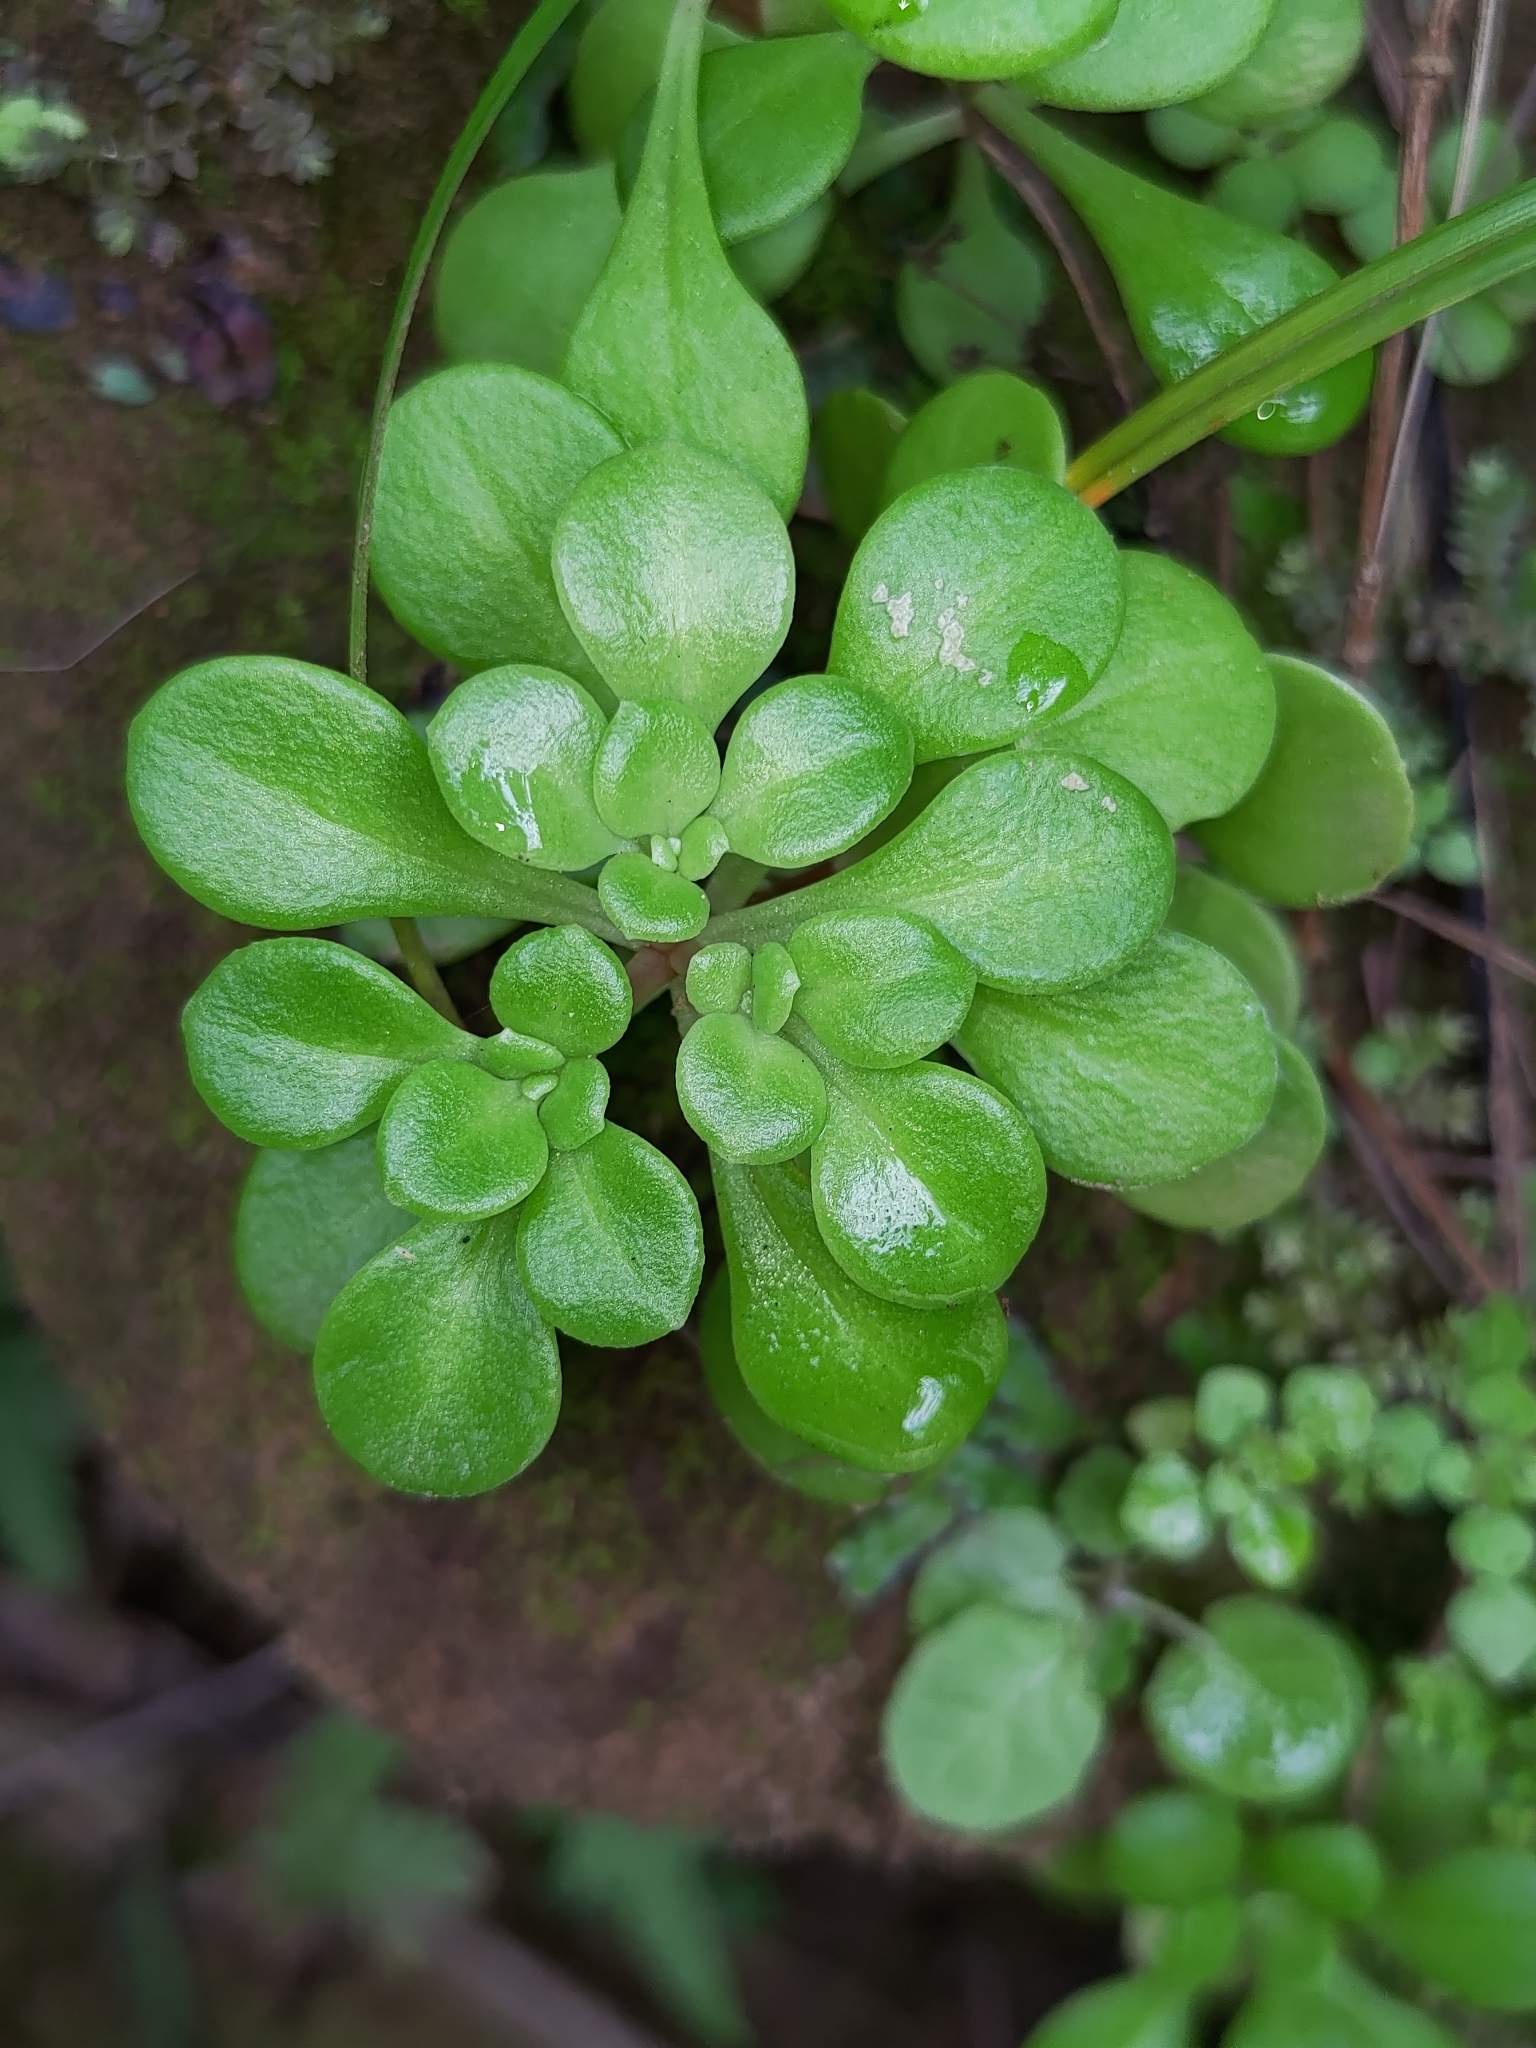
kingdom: Plantae
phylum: Tracheophyta
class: Magnoliopsida
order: Saxifragales
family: Crassulaceae
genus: Sedum
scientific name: Sedum formosanum
